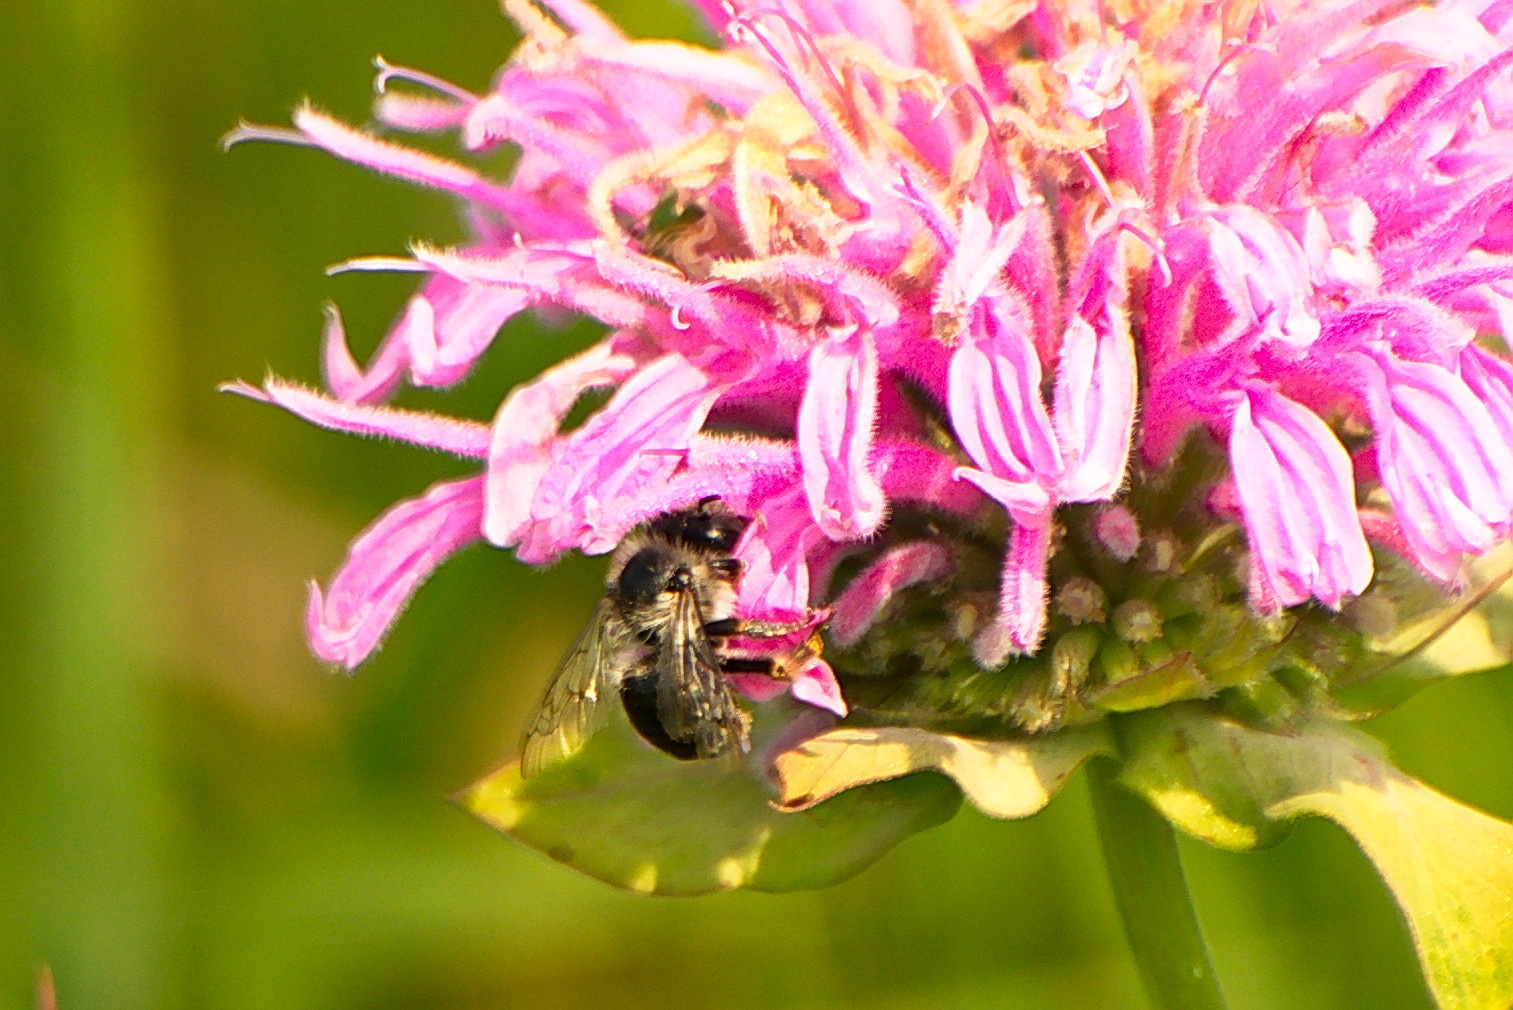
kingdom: Animalia
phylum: Arthropoda
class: Insecta
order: Hymenoptera
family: Apidae
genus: Anthophora
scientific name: Anthophora terminalis
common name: Orange-tipped wood-digger bee
